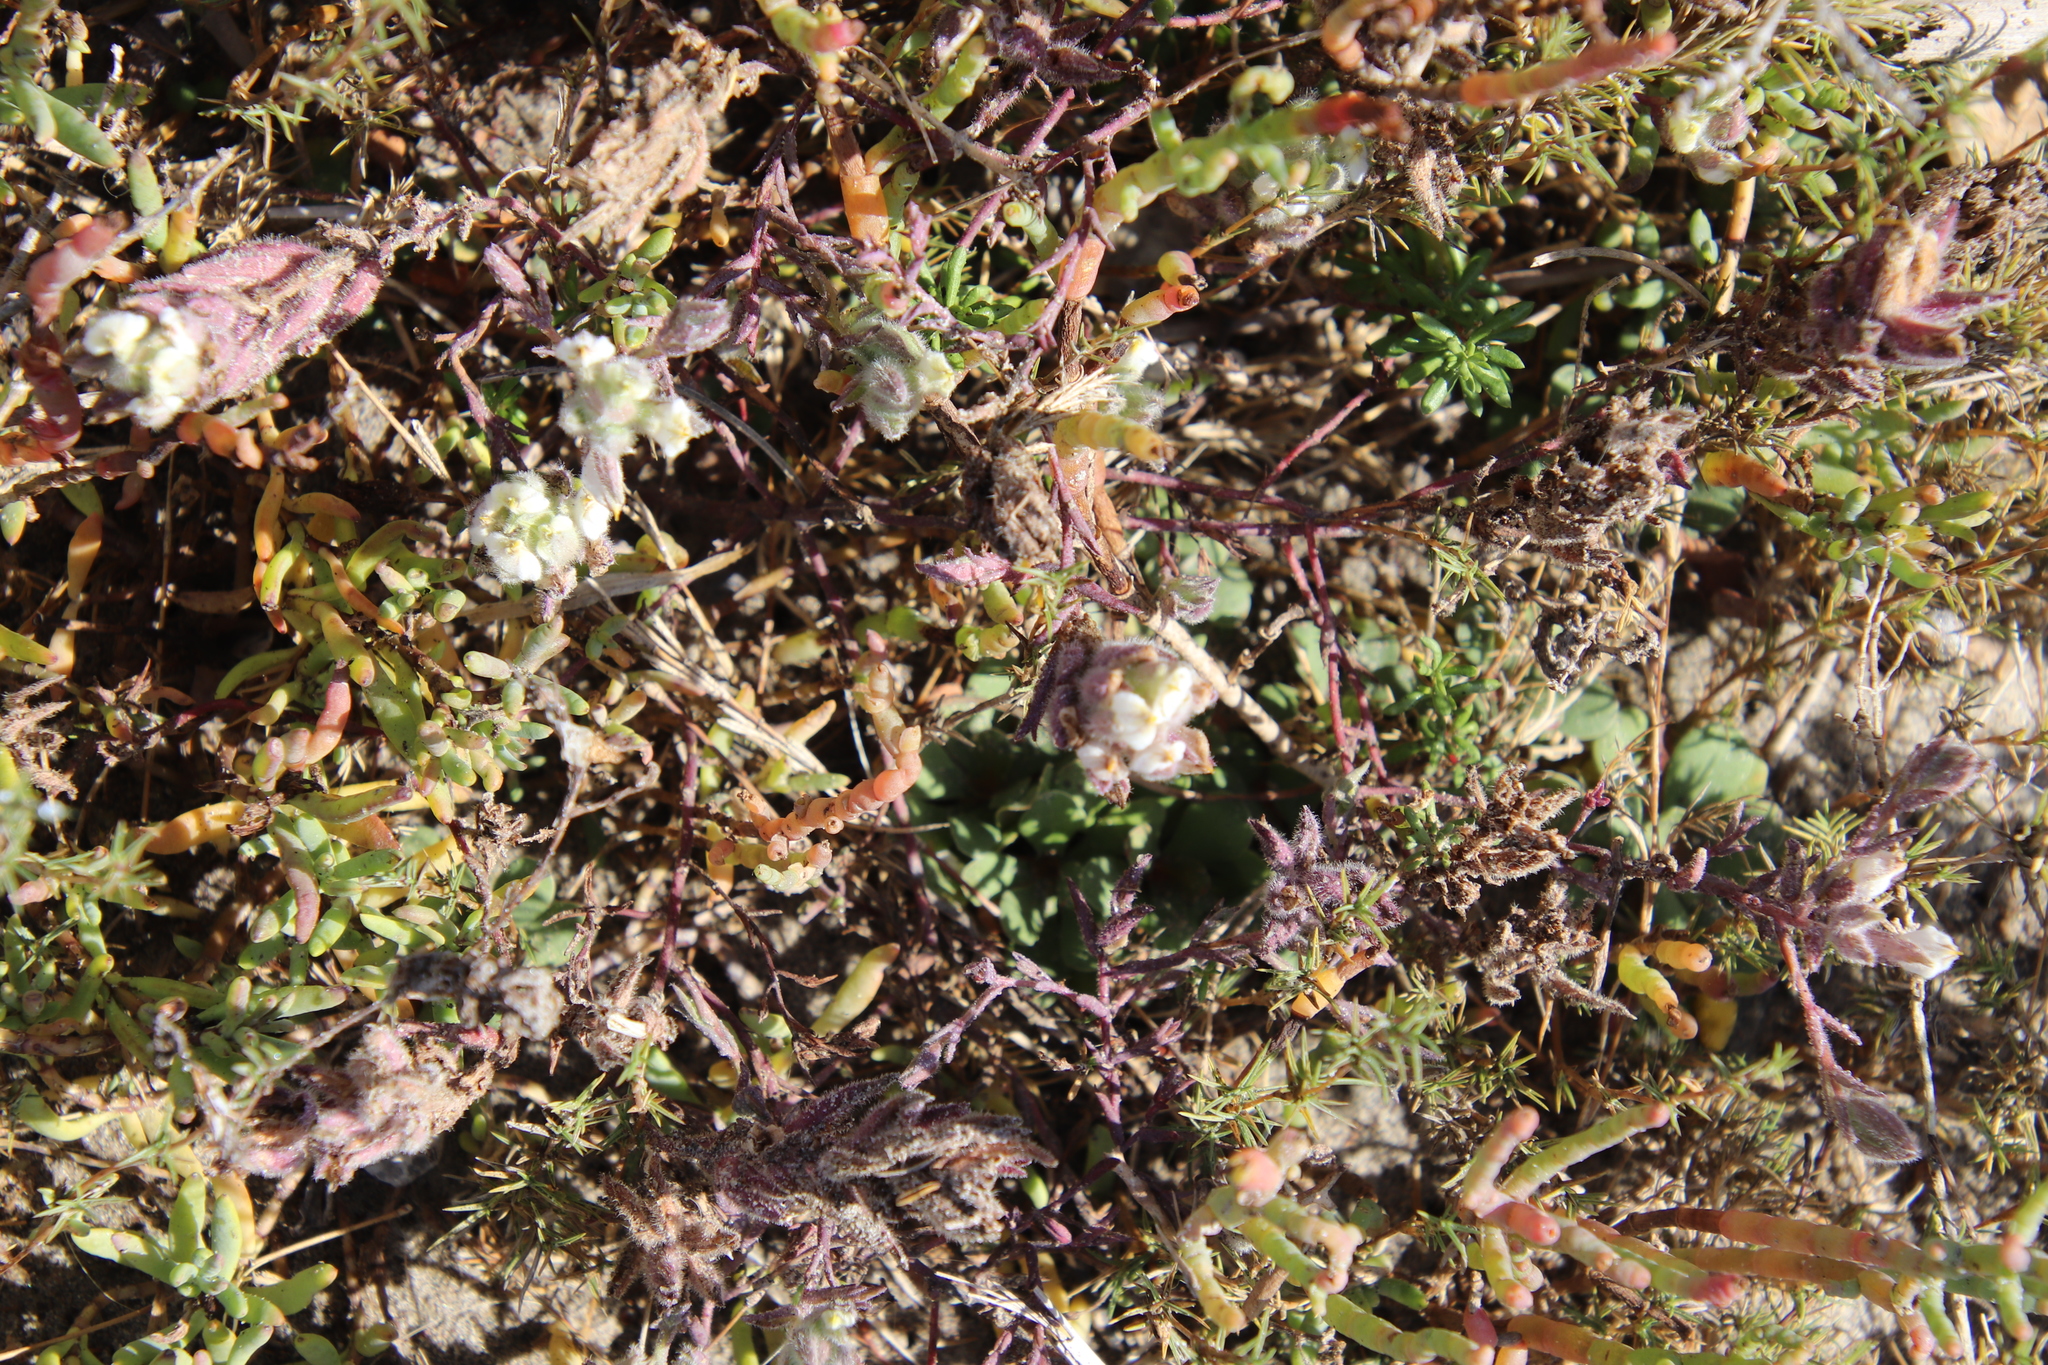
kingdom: Plantae
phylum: Tracheophyta
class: Magnoliopsida
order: Lamiales
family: Orobanchaceae
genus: Chloropyron
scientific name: Chloropyron maritimum
